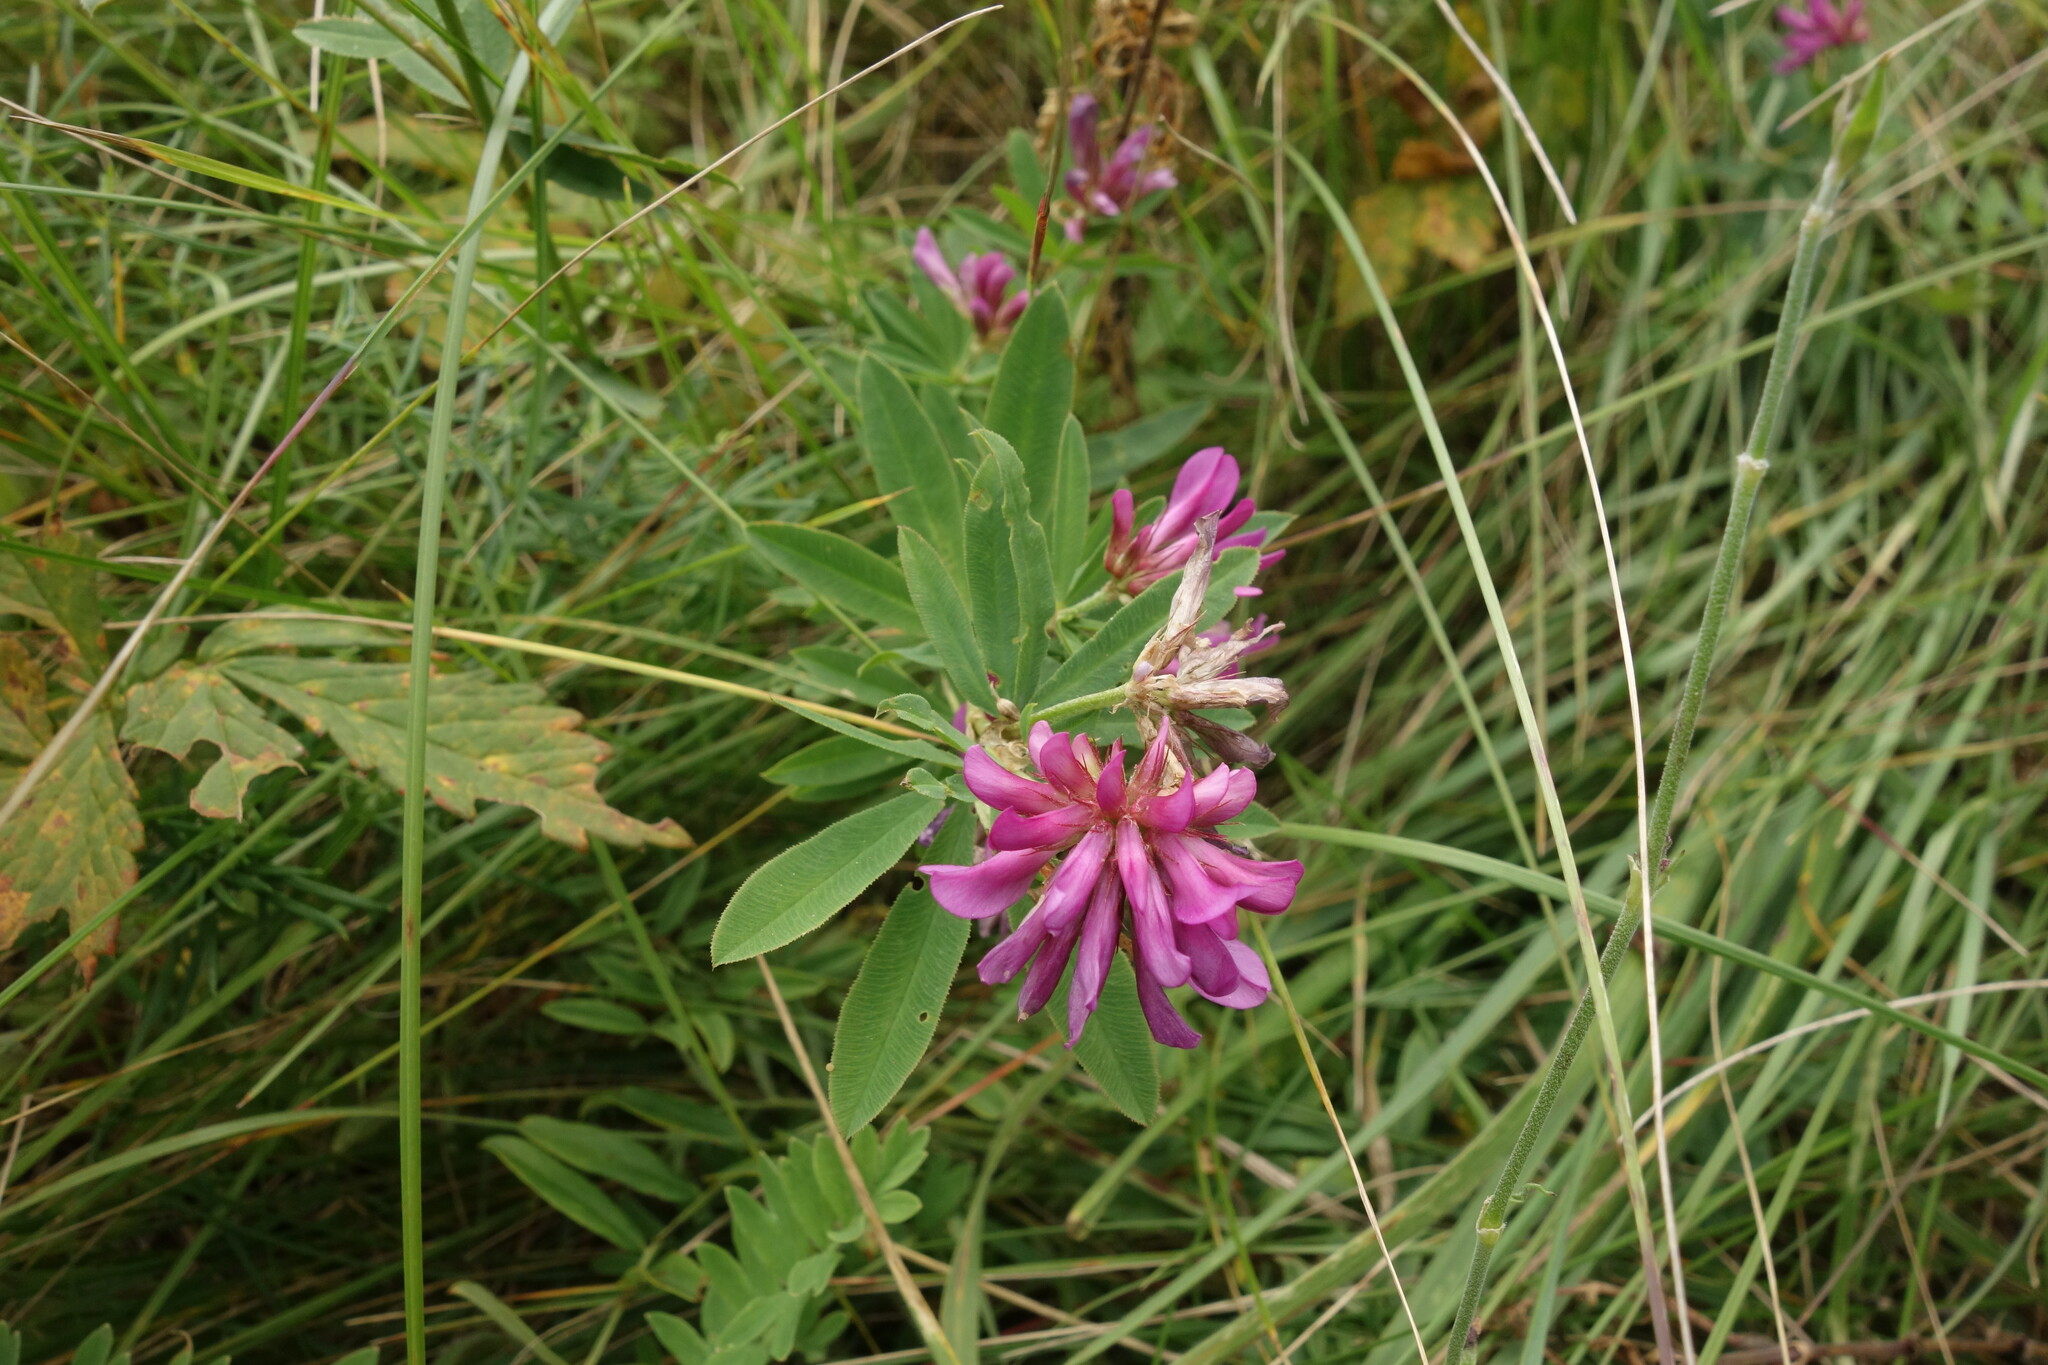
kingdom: Plantae
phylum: Tracheophyta
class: Magnoliopsida
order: Fabales
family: Fabaceae
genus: Trifolium
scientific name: Trifolium lupinaster
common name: Lupine clover
